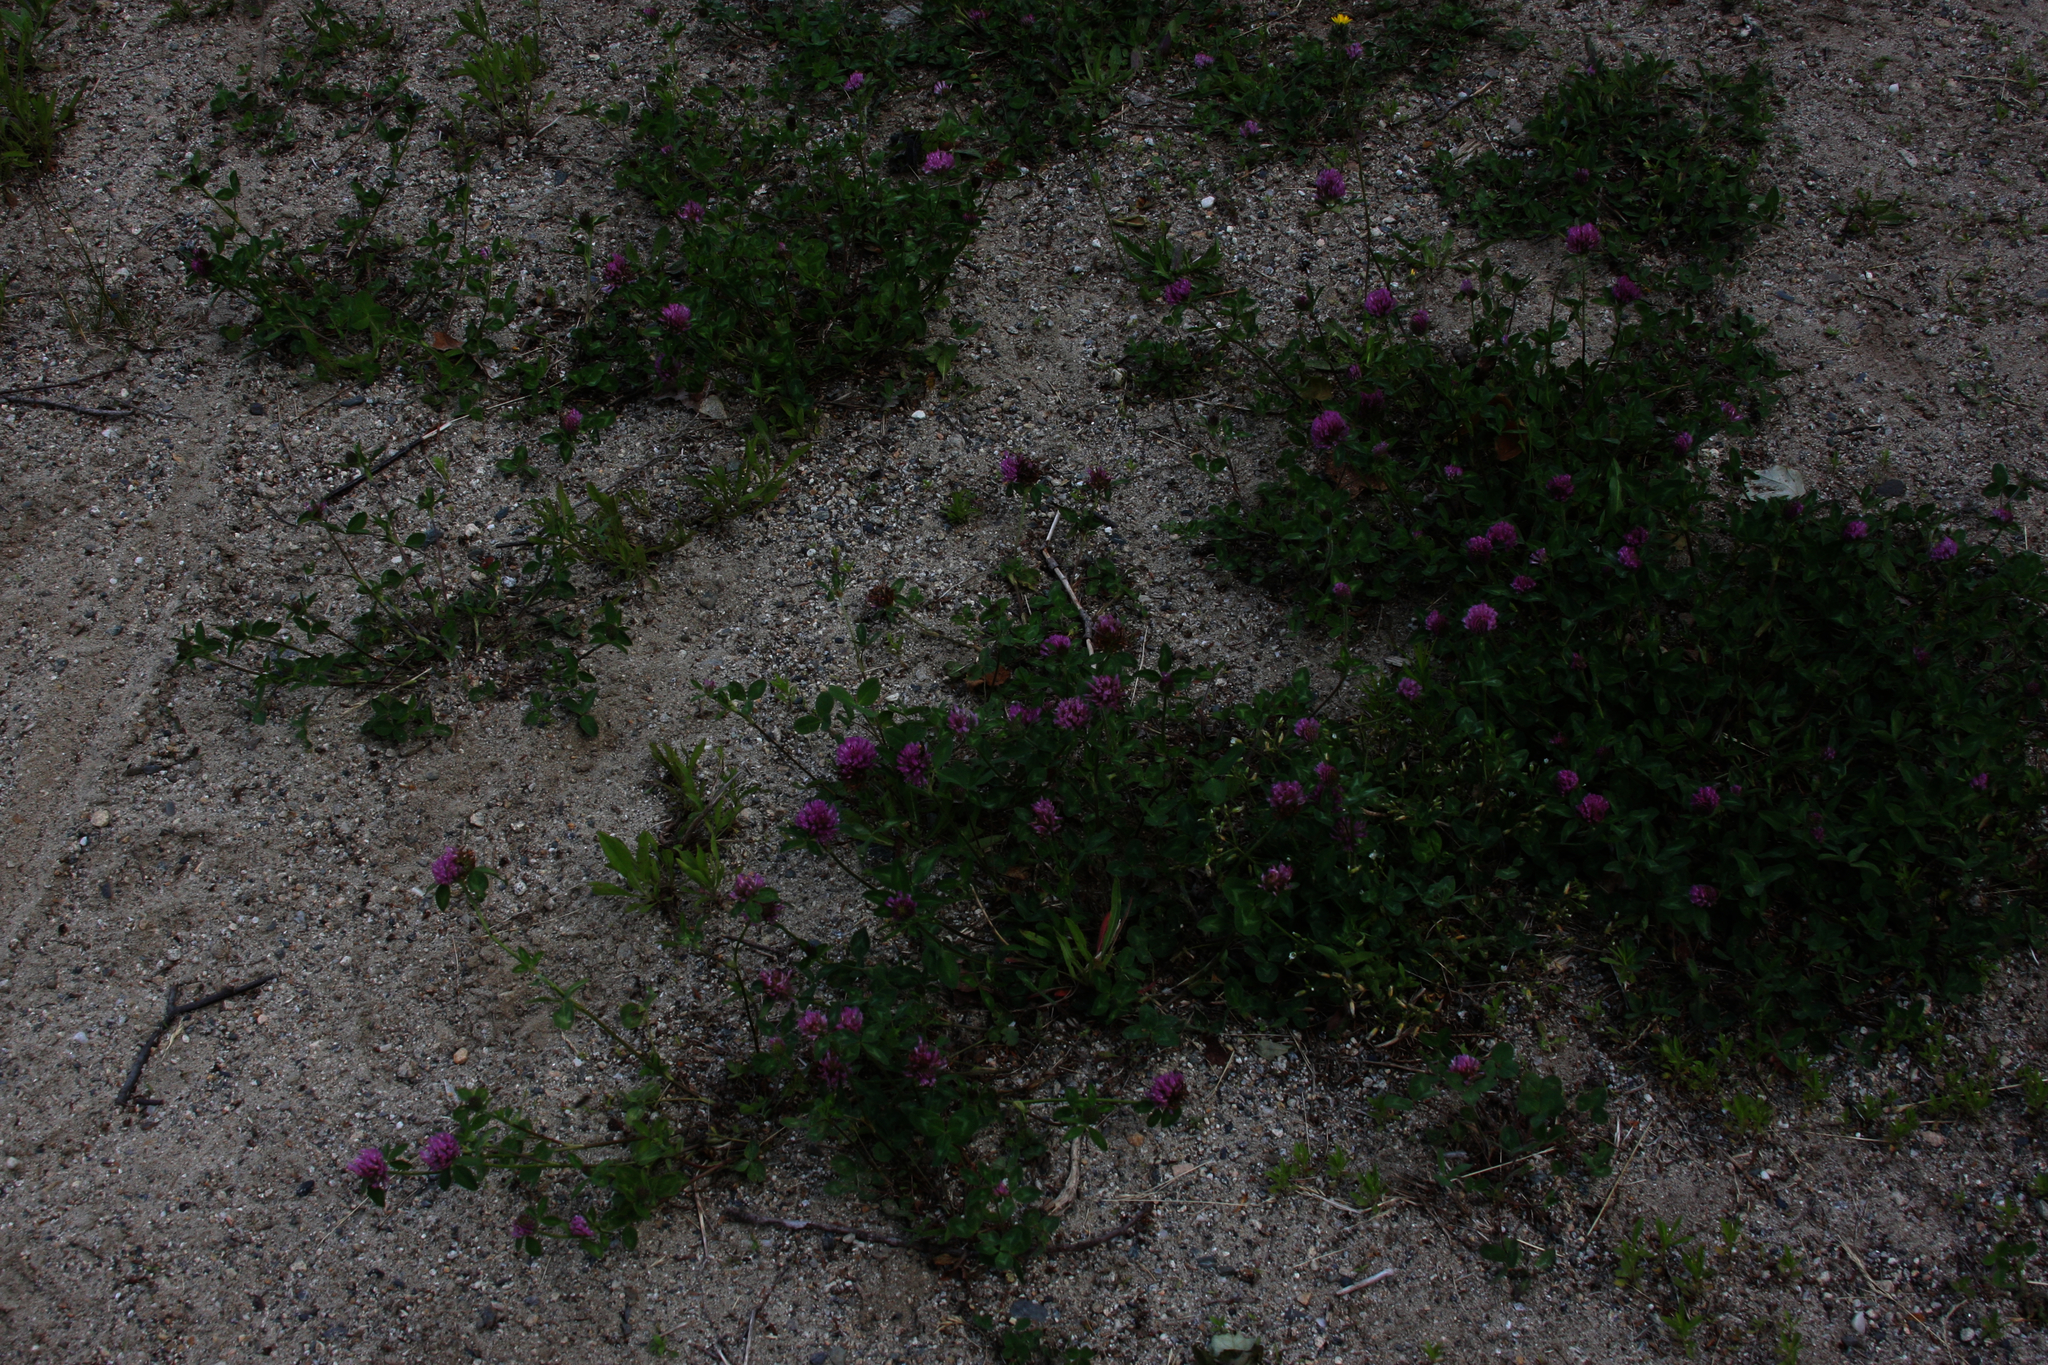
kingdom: Plantae
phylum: Tracheophyta
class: Magnoliopsida
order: Fabales
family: Fabaceae
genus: Trifolium
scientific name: Trifolium pratense
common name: Red clover
